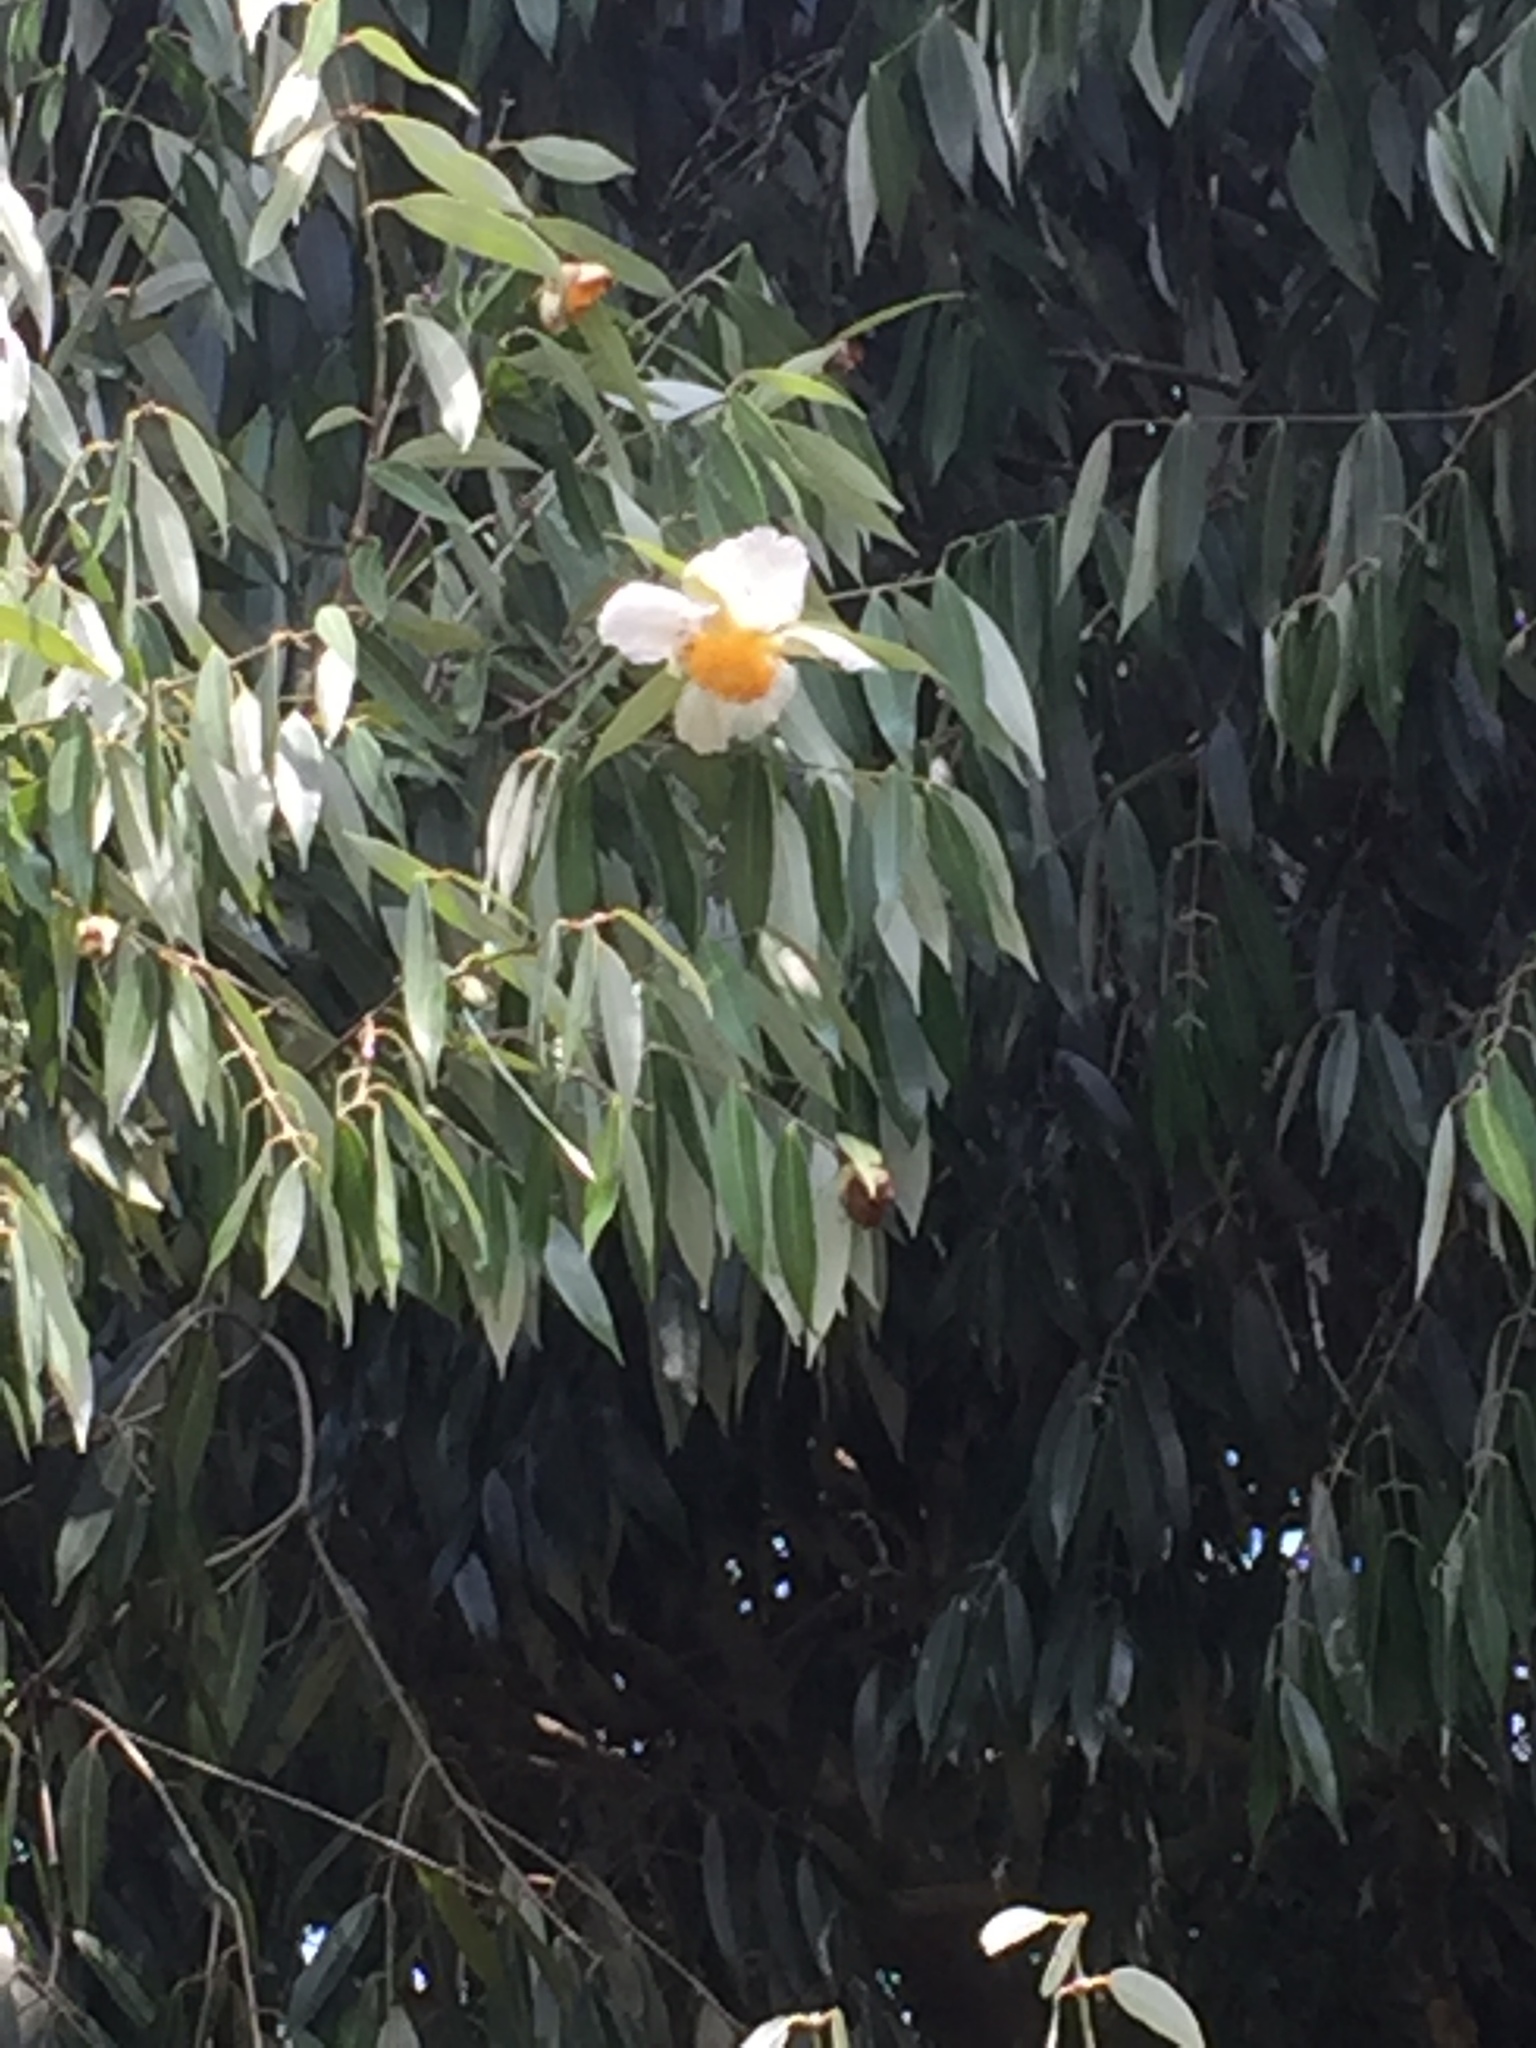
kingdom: Plantae
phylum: Tracheophyta
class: Magnoliopsida
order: Malpighiales
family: Calophyllaceae
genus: Mesua
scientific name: Mesua ferrea
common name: Mesua
